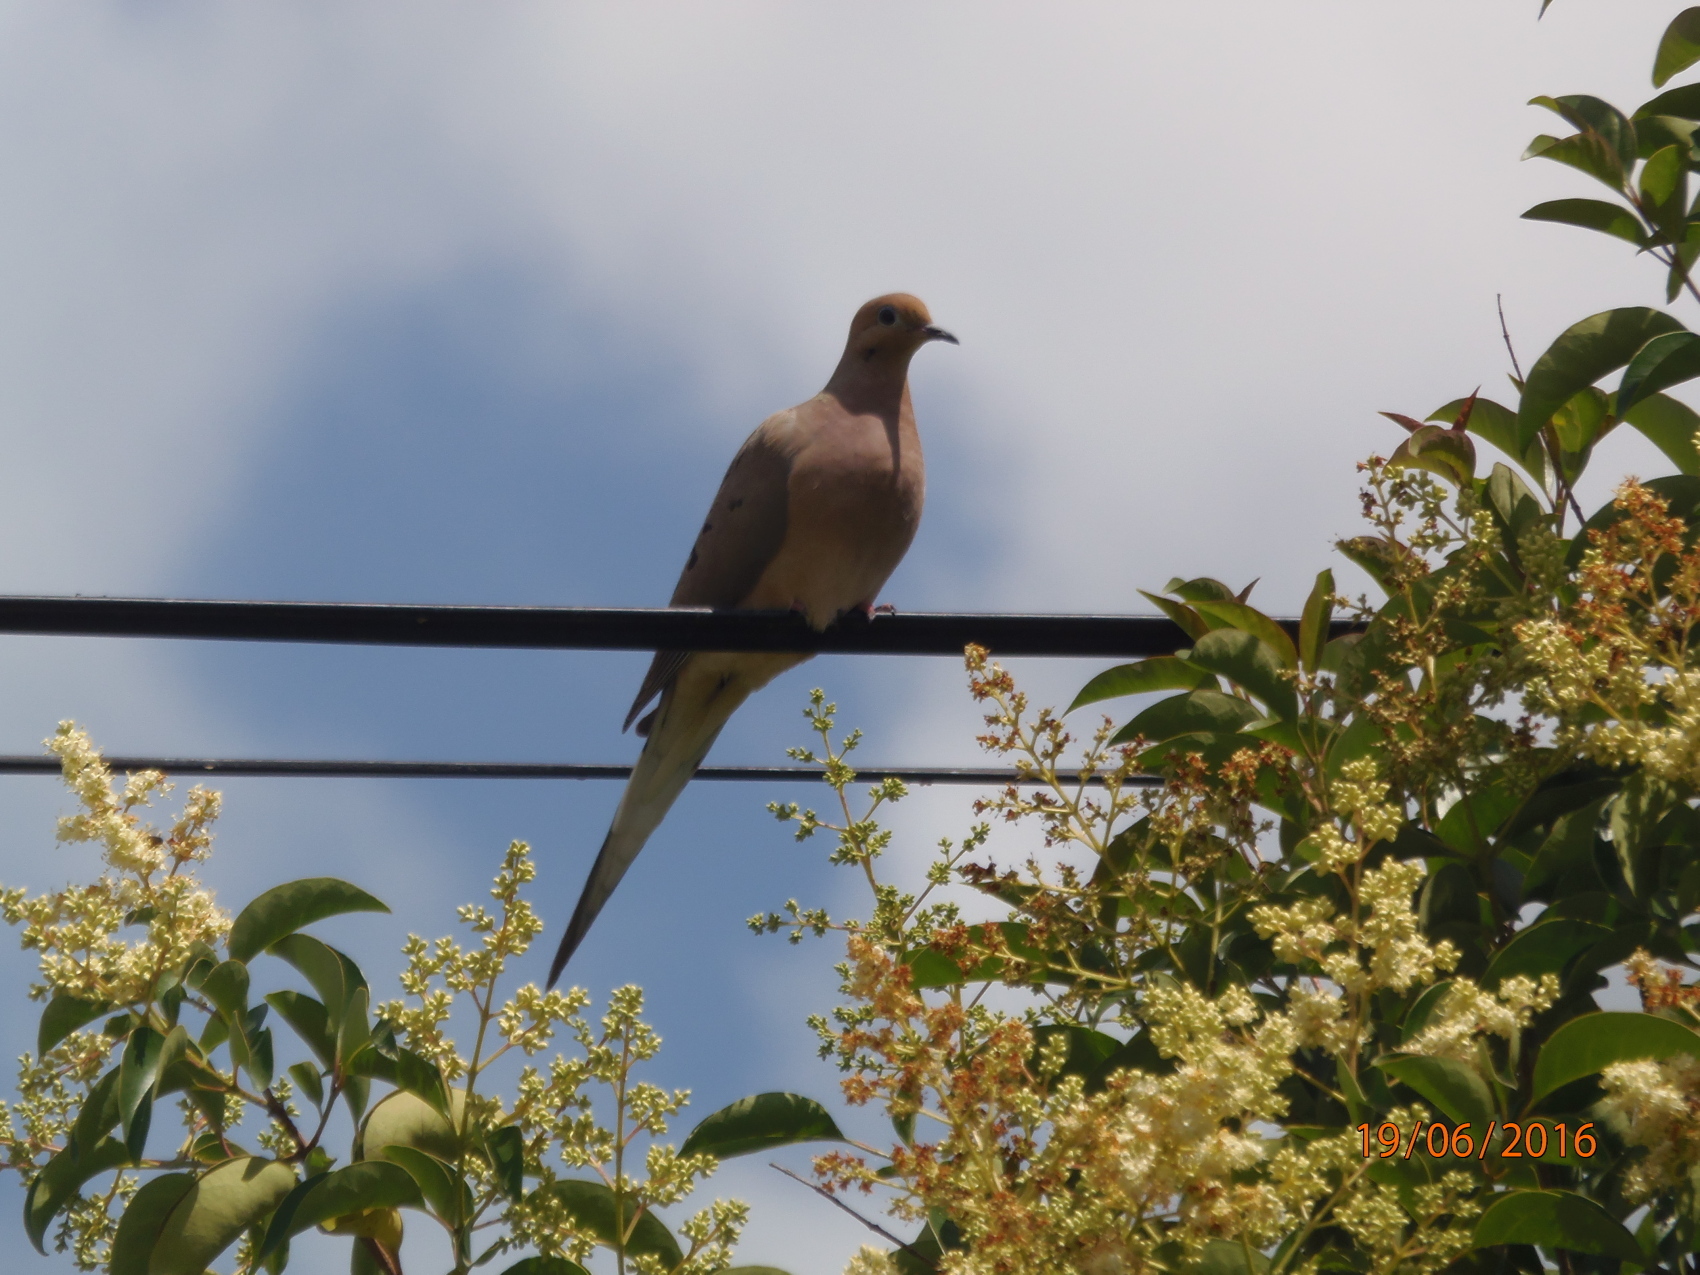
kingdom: Animalia
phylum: Chordata
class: Aves
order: Columbiformes
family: Columbidae
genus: Zenaida
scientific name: Zenaida macroura
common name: Mourning dove
